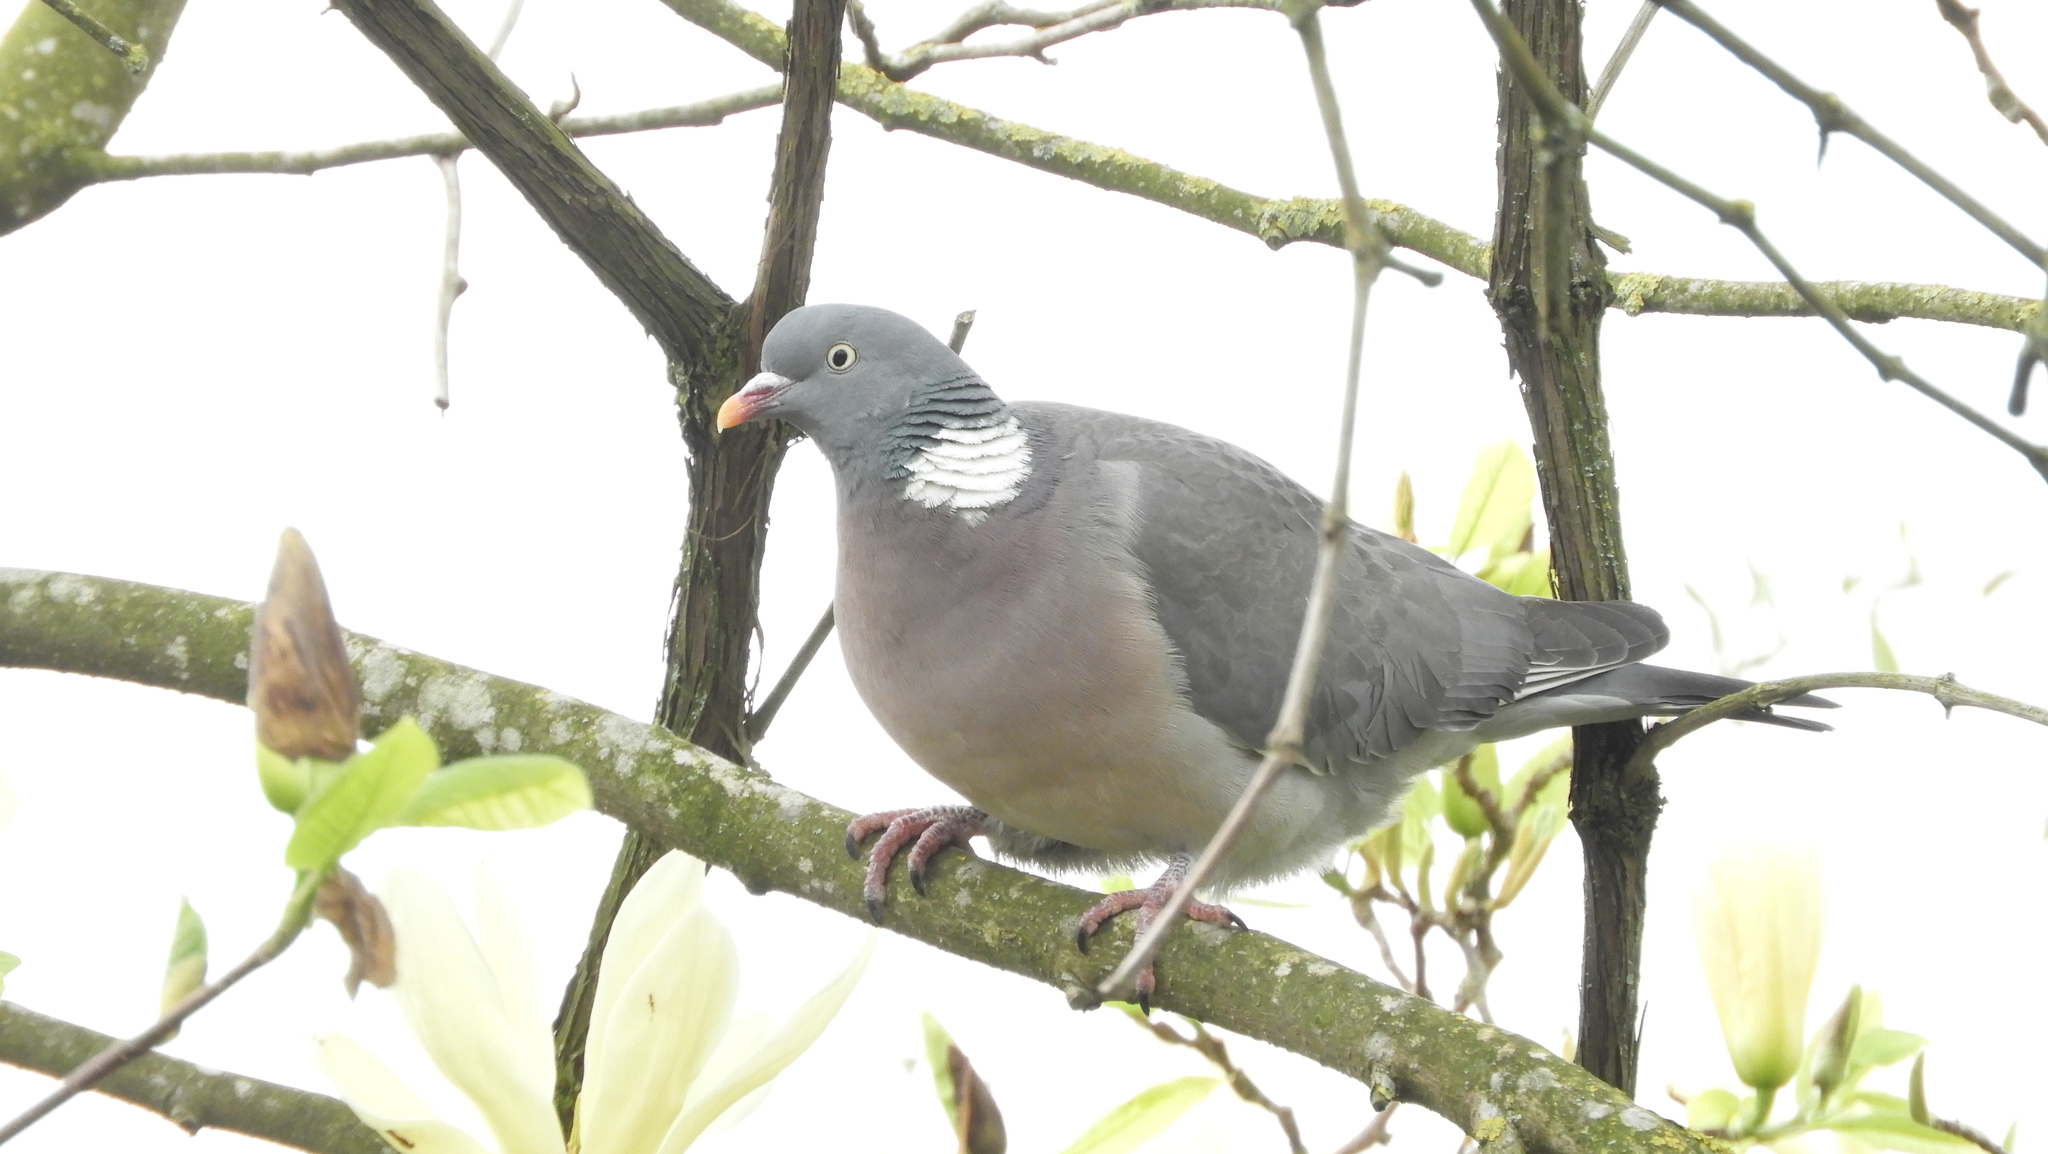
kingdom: Animalia
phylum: Chordata
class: Aves
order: Columbiformes
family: Columbidae
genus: Columba
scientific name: Columba palumbus
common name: Common wood pigeon
